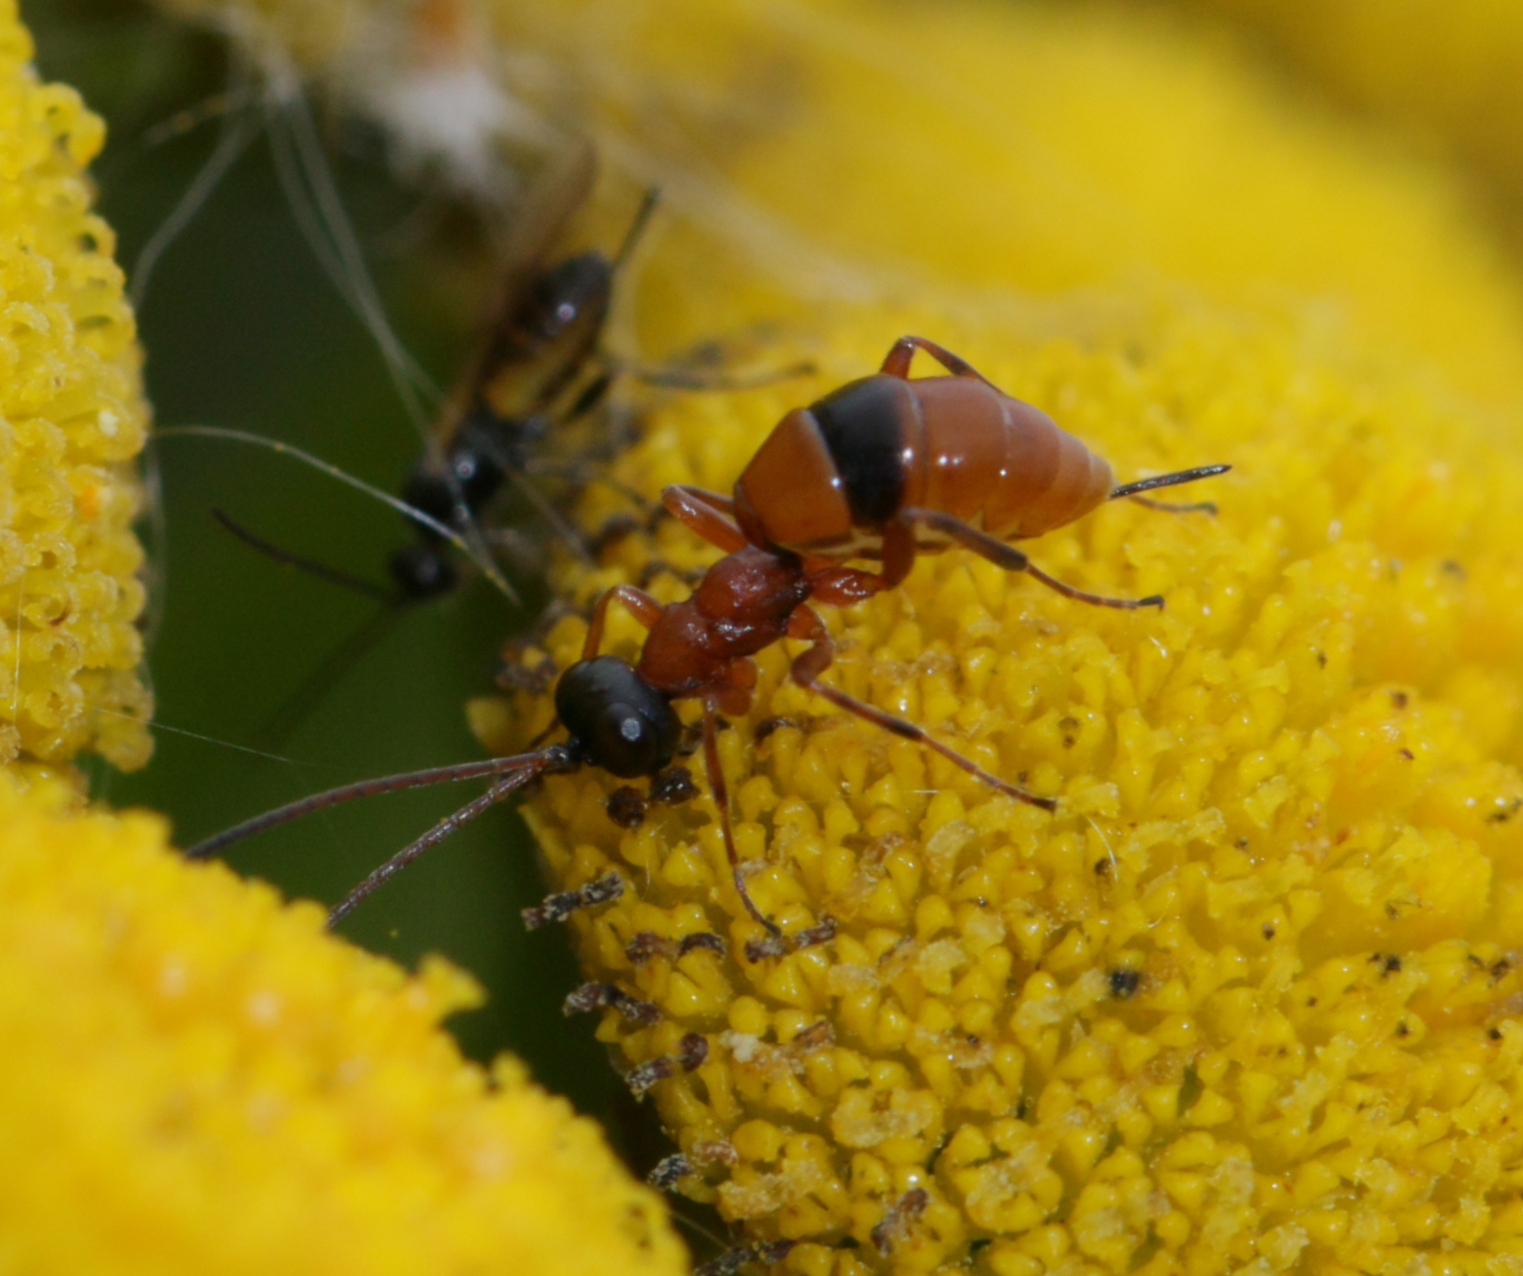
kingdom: Animalia
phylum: Arthropoda
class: Insecta
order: Hymenoptera
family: Ichneumonidae
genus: Gelis
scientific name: Gelis melanocephalus
